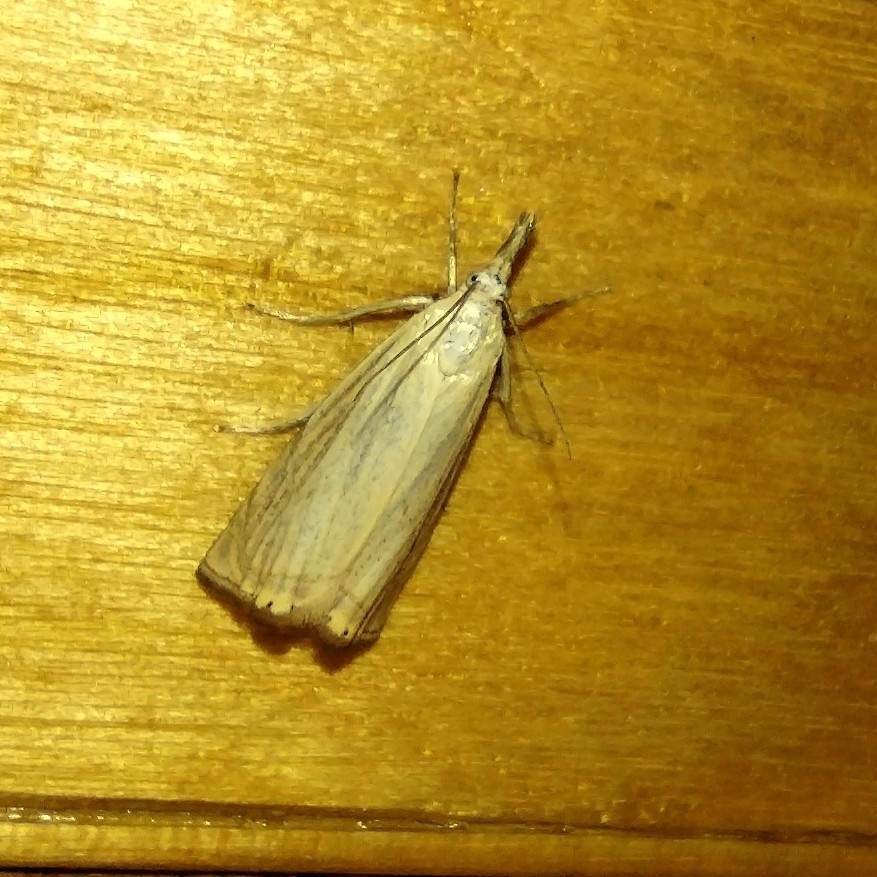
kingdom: Animalia
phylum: Arthropoda
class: Insecta
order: Lepidoptera
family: Crambidae
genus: Chrysoteuchia
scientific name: Chrysoteuchia culmella
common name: Garden grass-veneer
